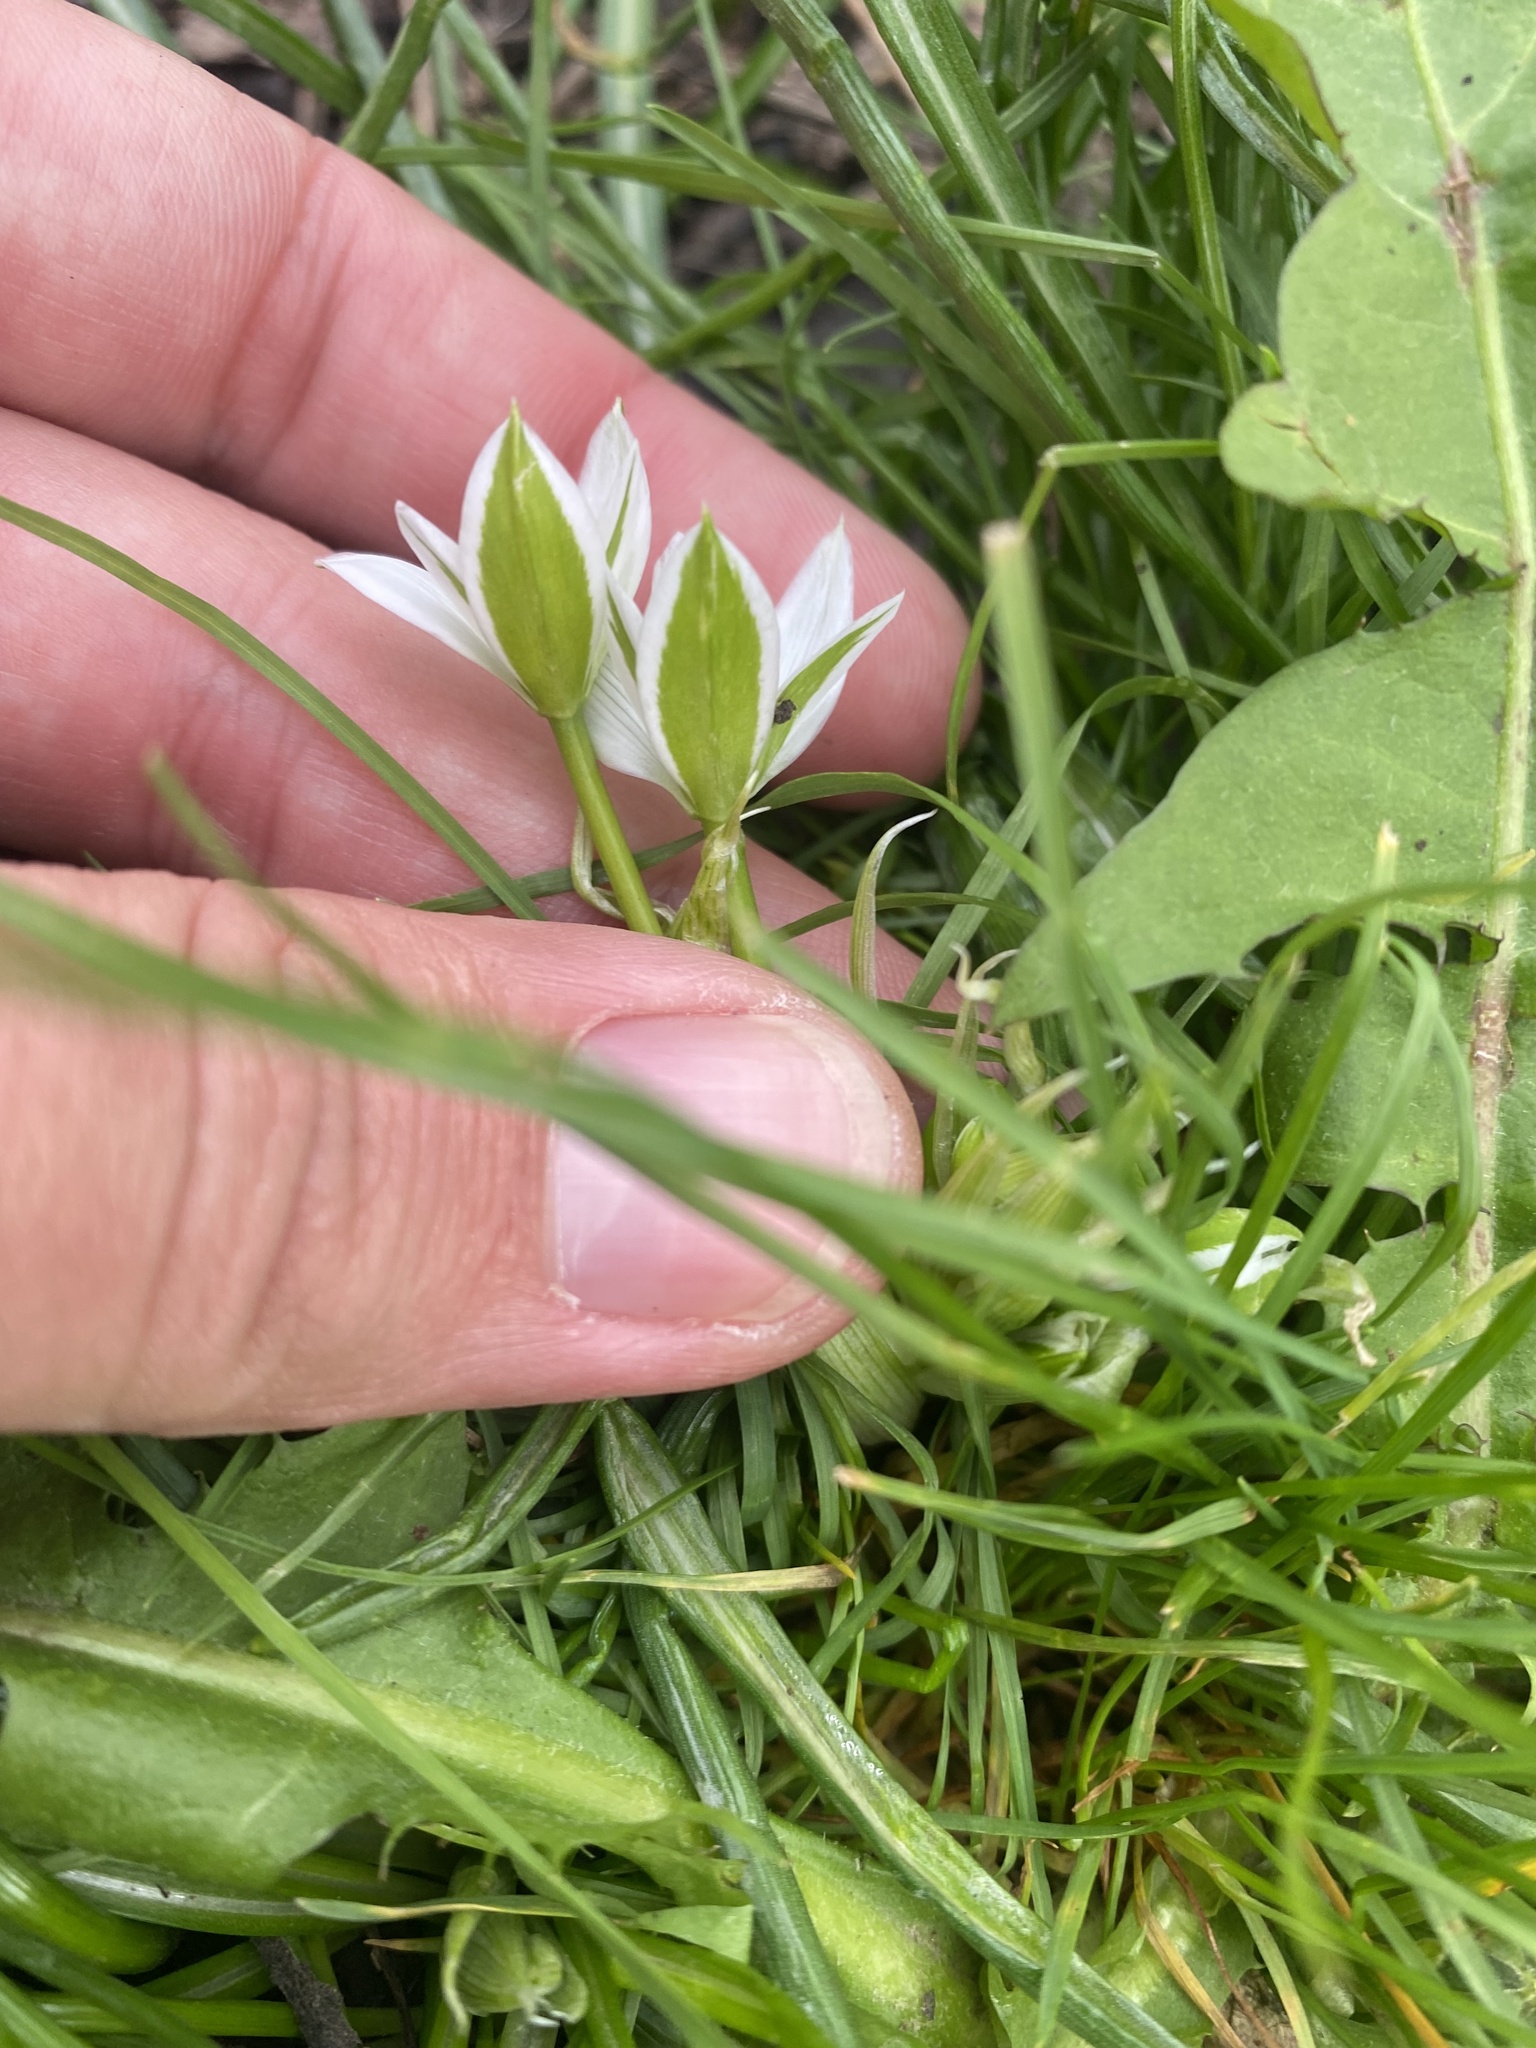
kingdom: Plantae
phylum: Tracheophyta
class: Liliopsida
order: Asparagales
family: Asparagaceae
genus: Ornithogalum
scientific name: Ornithogalum woronowii
